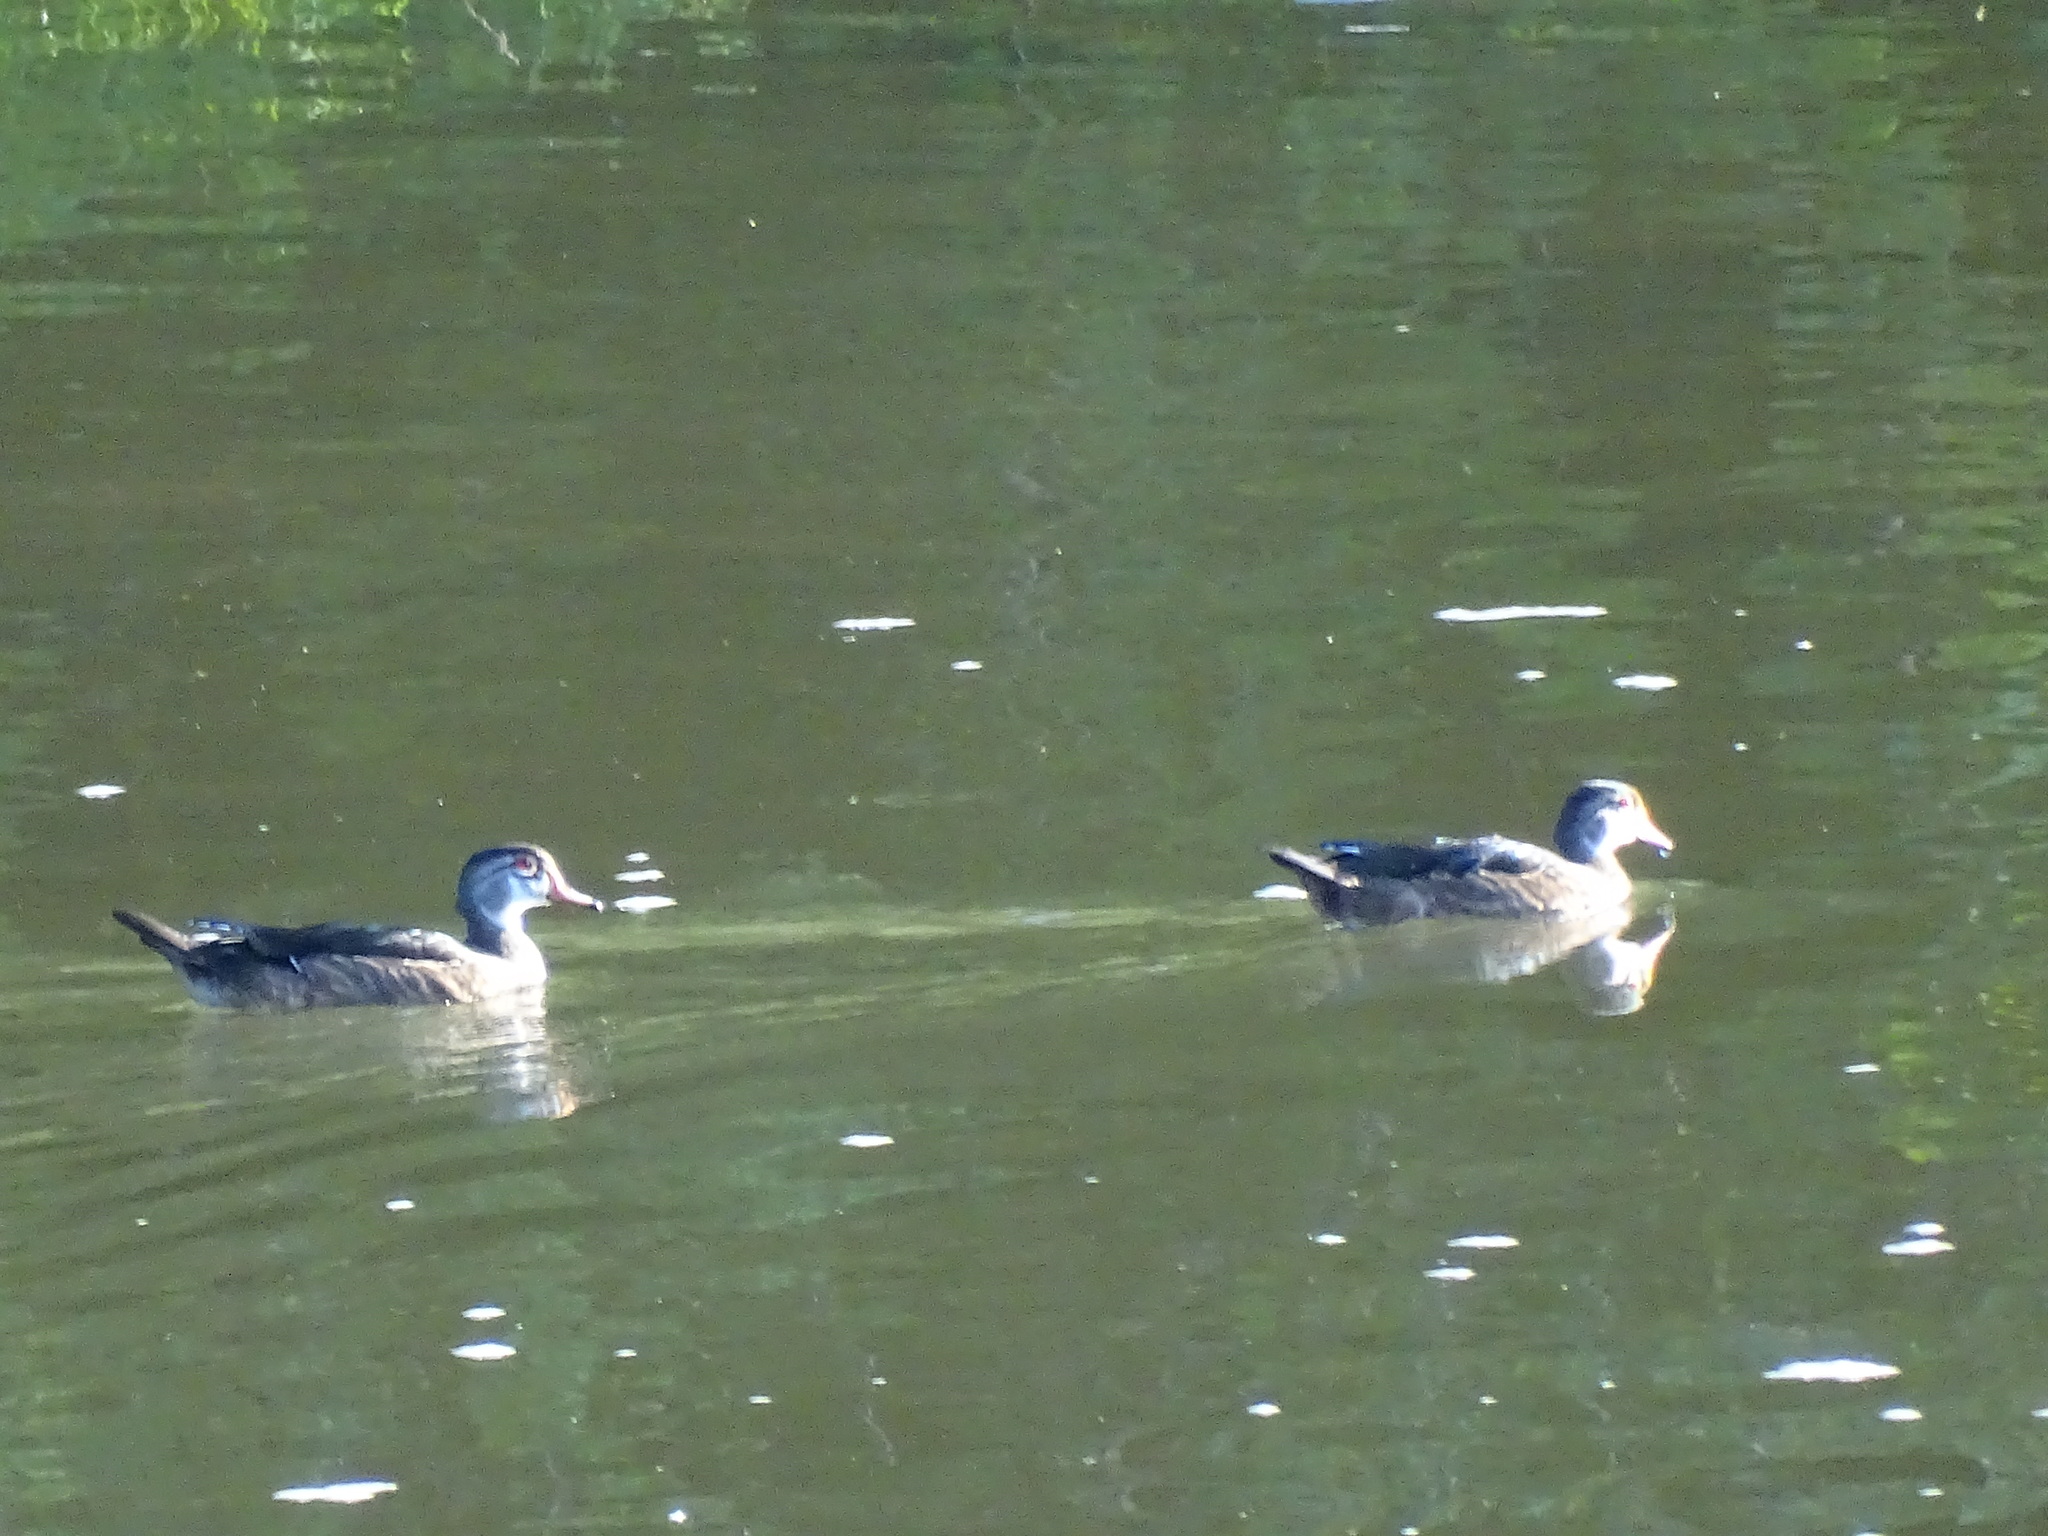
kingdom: Animalia
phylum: Chordata
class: Aves
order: Anseriformes
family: Anatidae
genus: Aix
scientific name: Aix sponsa
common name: Wood duck
